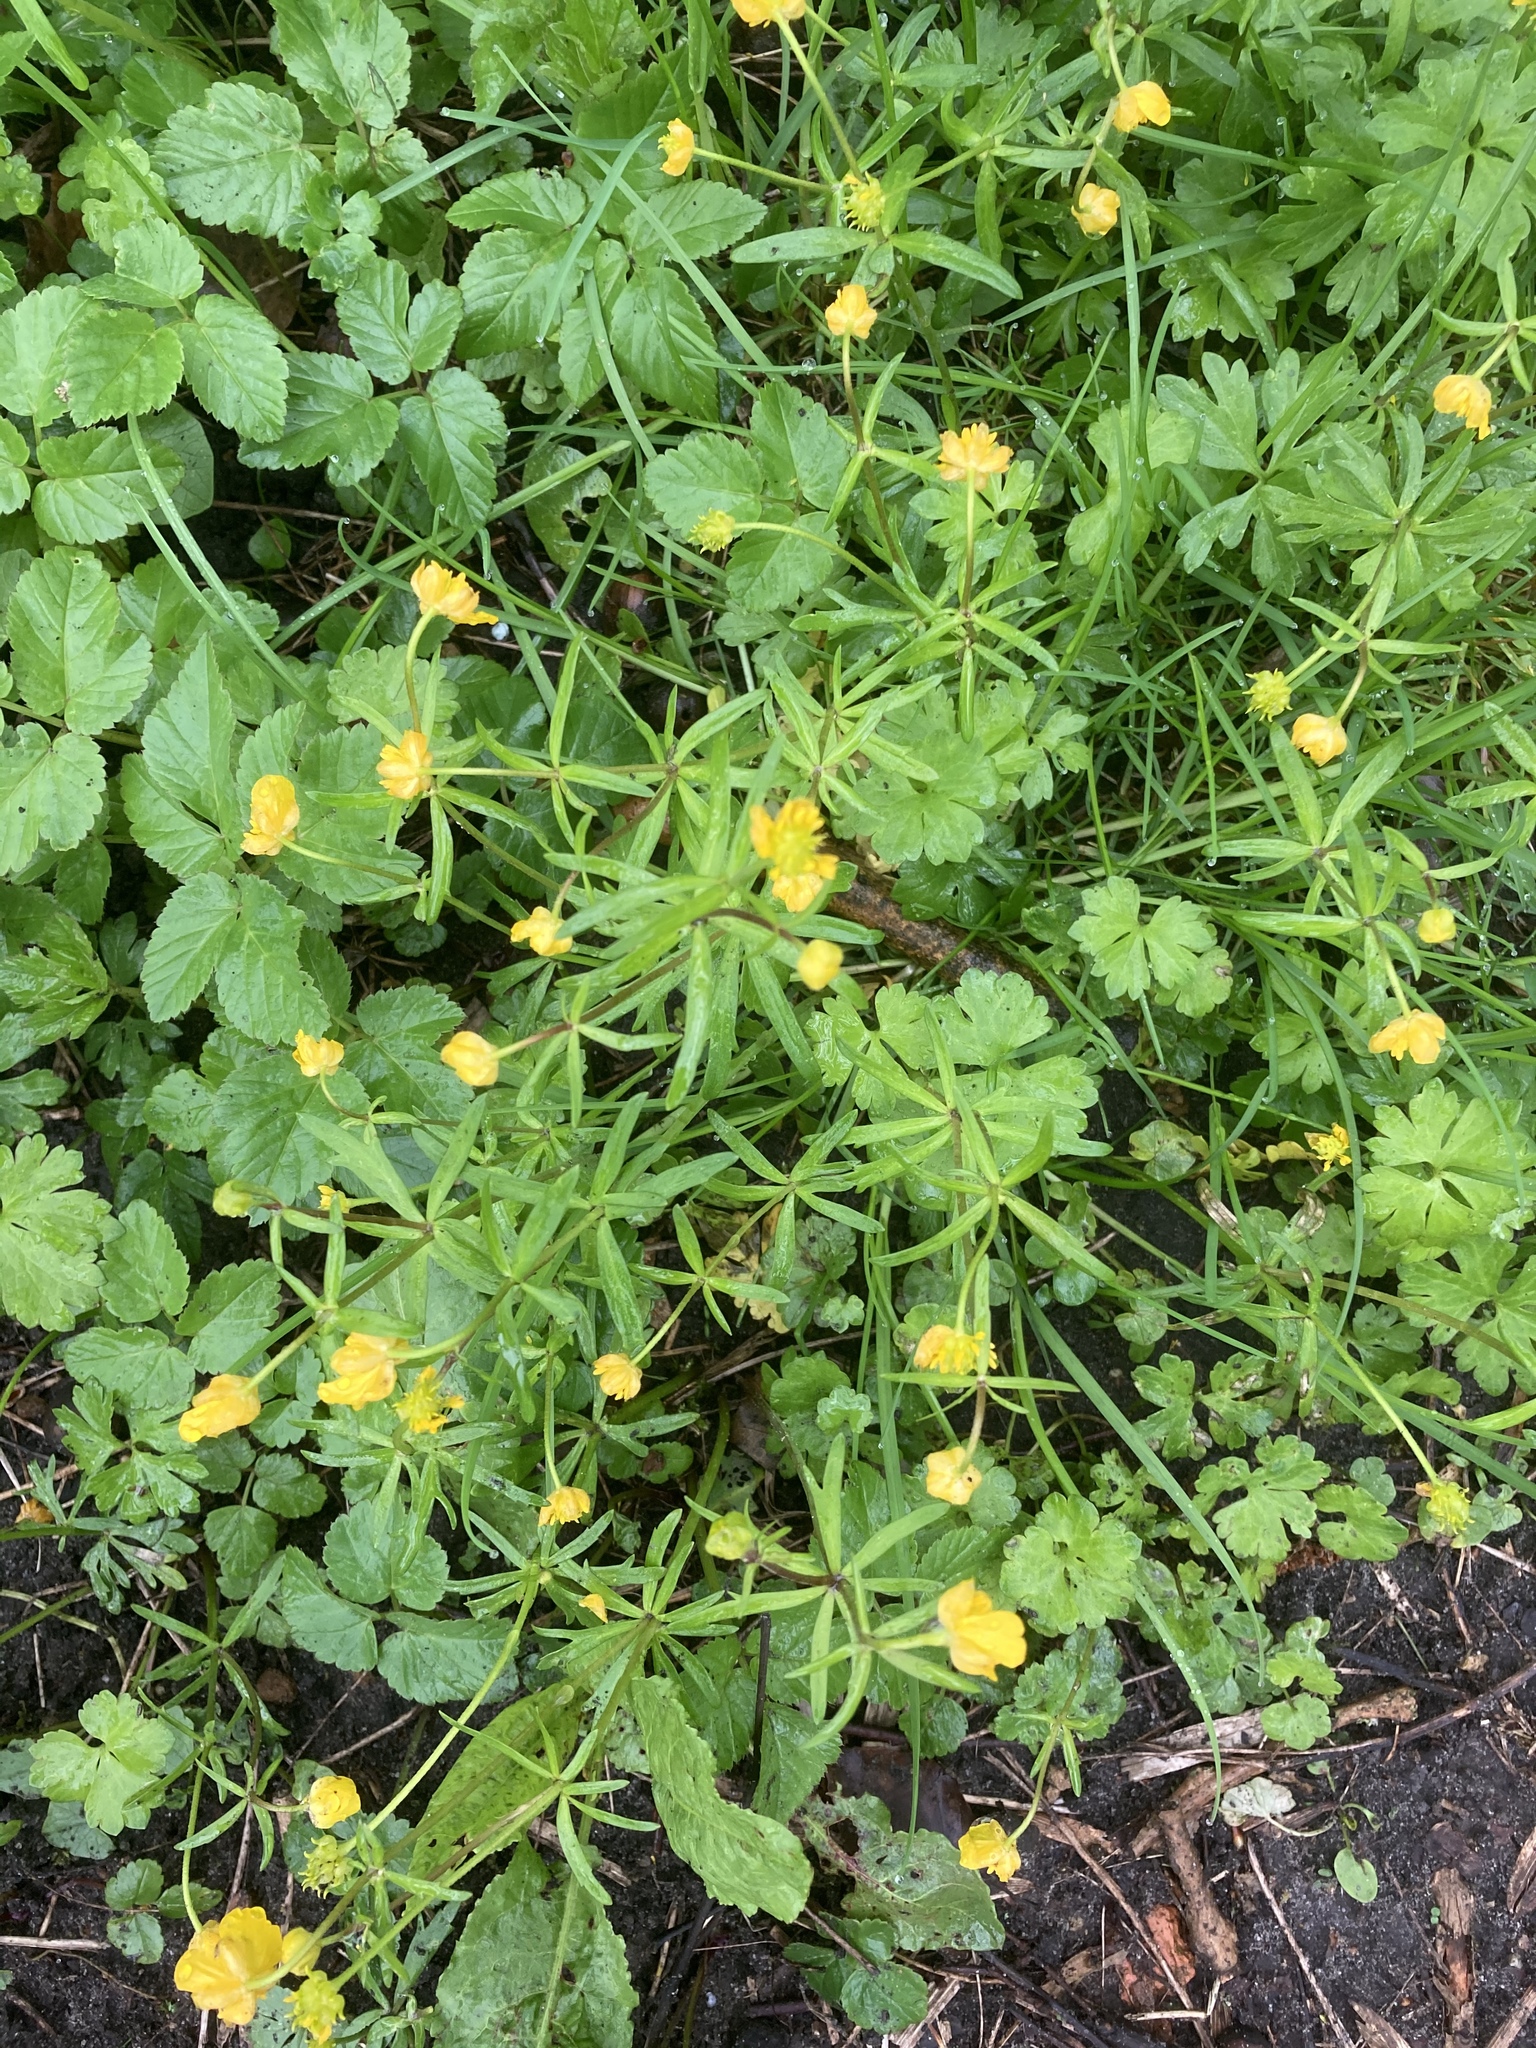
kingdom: Plantae
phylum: Tracheophyta
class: Magnoliopsida
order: Ranunculales
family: Ranunculaceae
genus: Ranunculus
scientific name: Ranunculus auricomus
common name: Goldilocks buttercup
